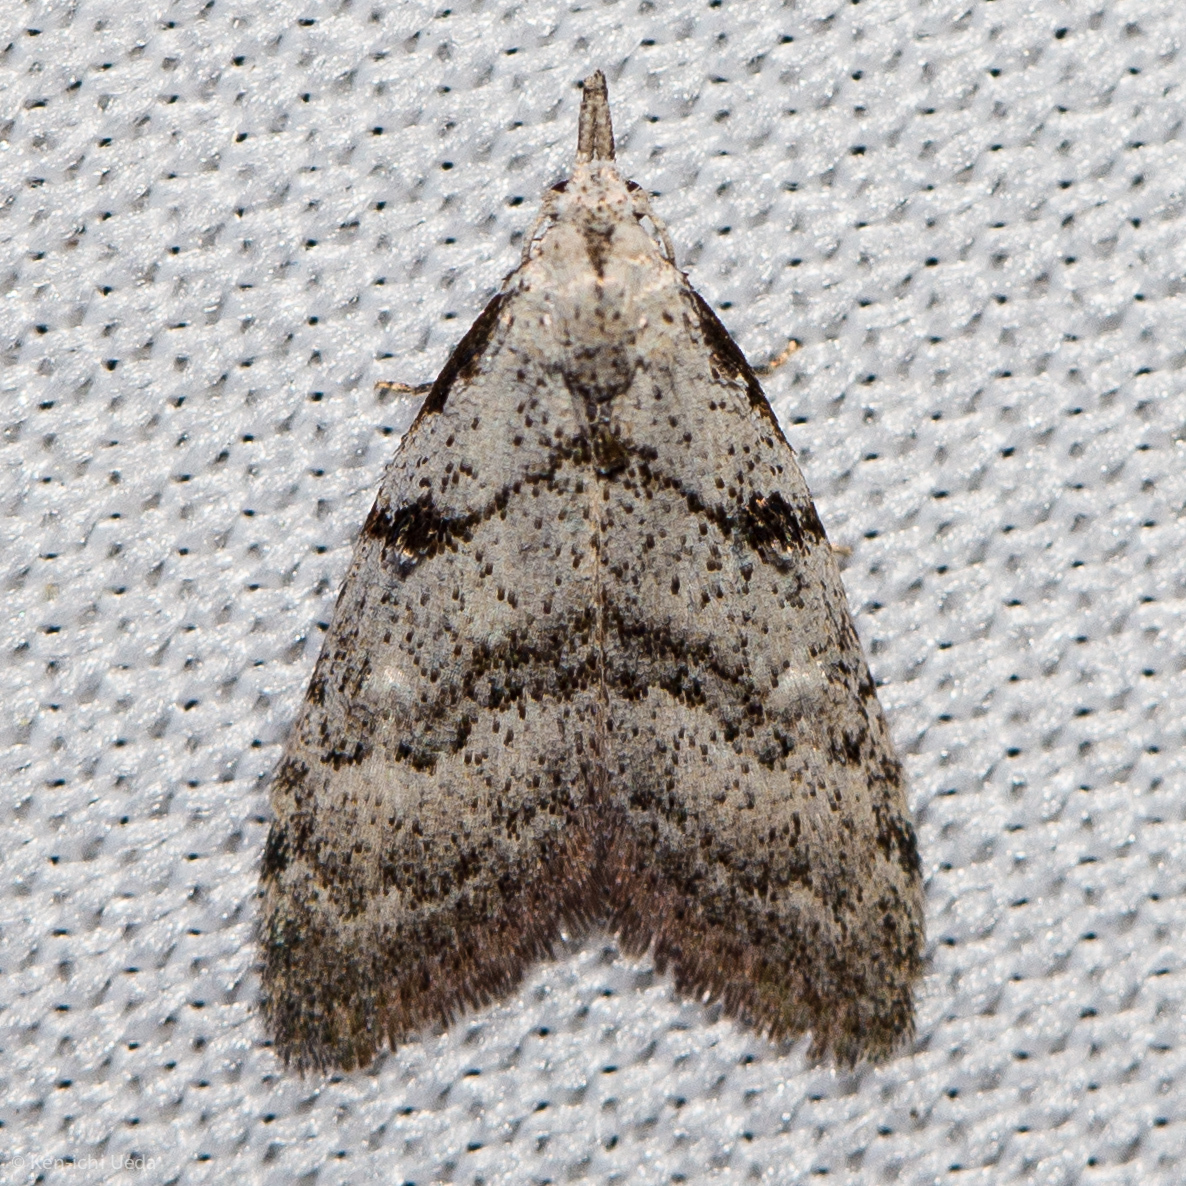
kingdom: Animalia
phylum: Arthropoda
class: Insecta
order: Lepidoptera
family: Nolidae
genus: Nola
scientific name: Nola minna
